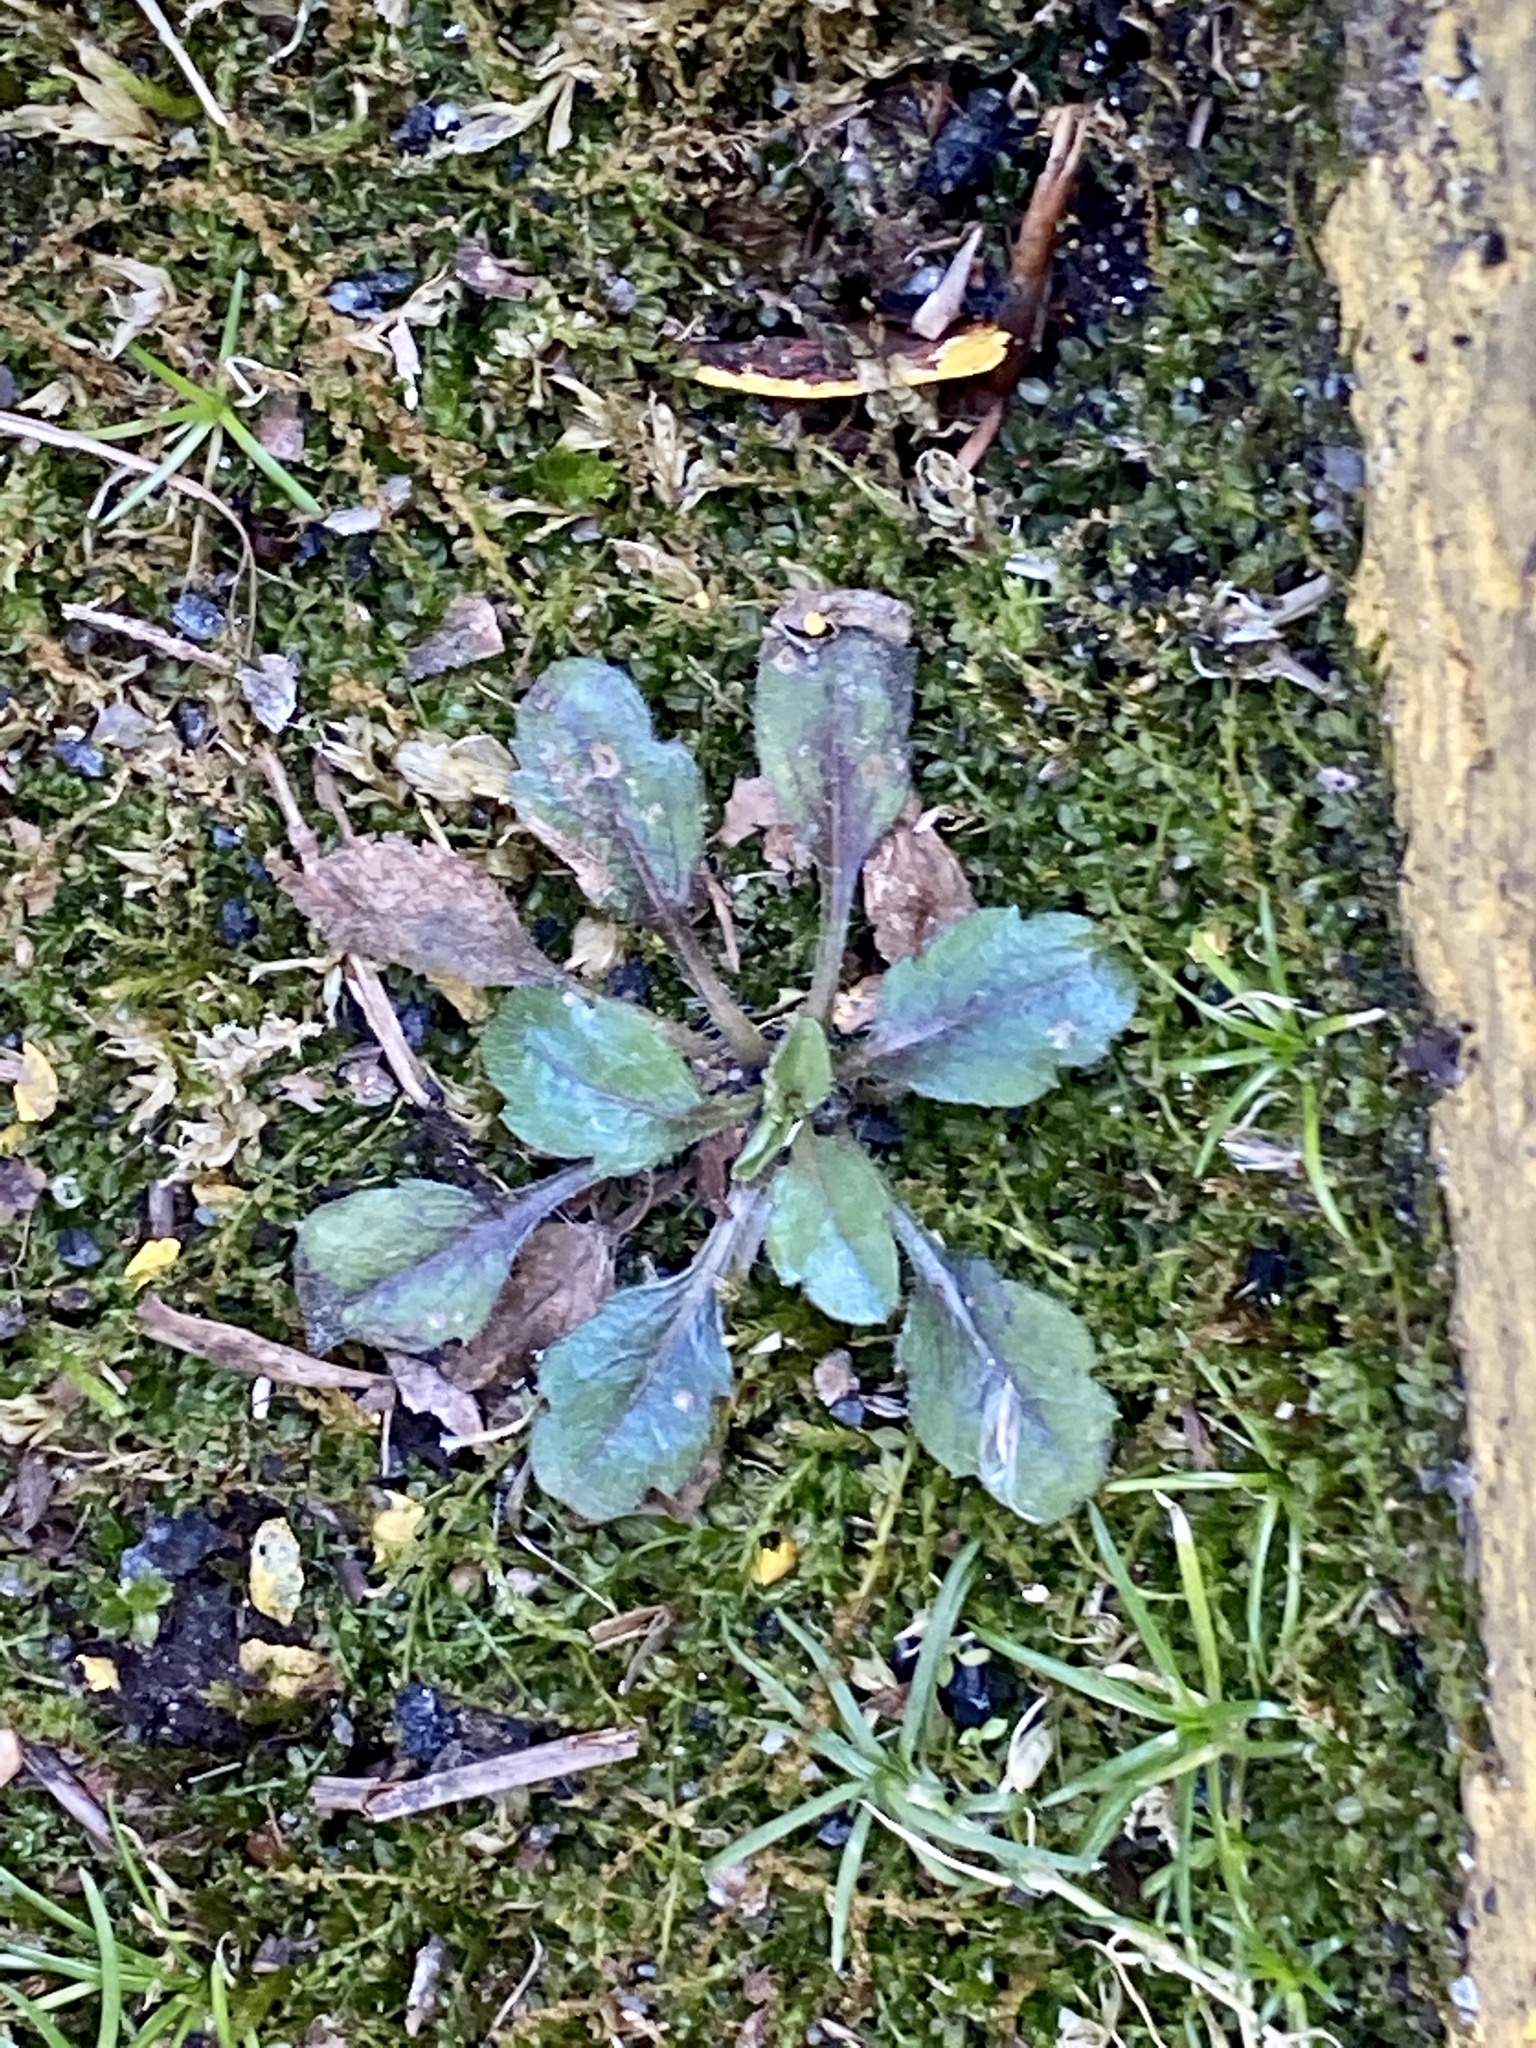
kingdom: Plantae
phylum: Tracheophyta
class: Magnoliopsida
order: Asterales
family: Asteraceae
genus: Erigeron
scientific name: Erigeron canadensis
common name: Canadian fleabane
